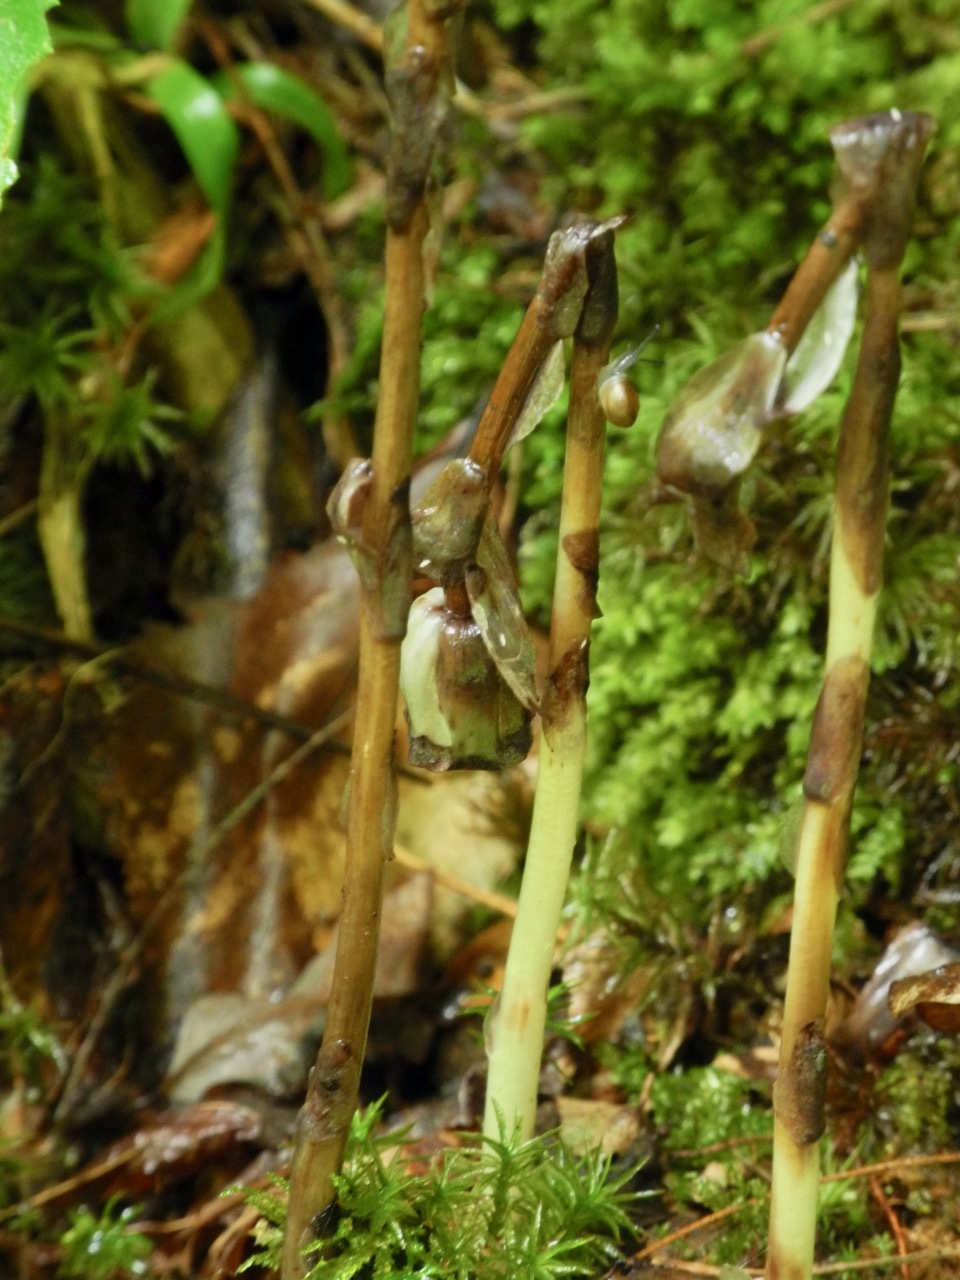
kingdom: Plantae
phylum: Tracheophyta
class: Magnoliopsida
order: Ericales
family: Ericaceae
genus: Monotropa
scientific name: Monotropa uniflora
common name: Convulsion root
